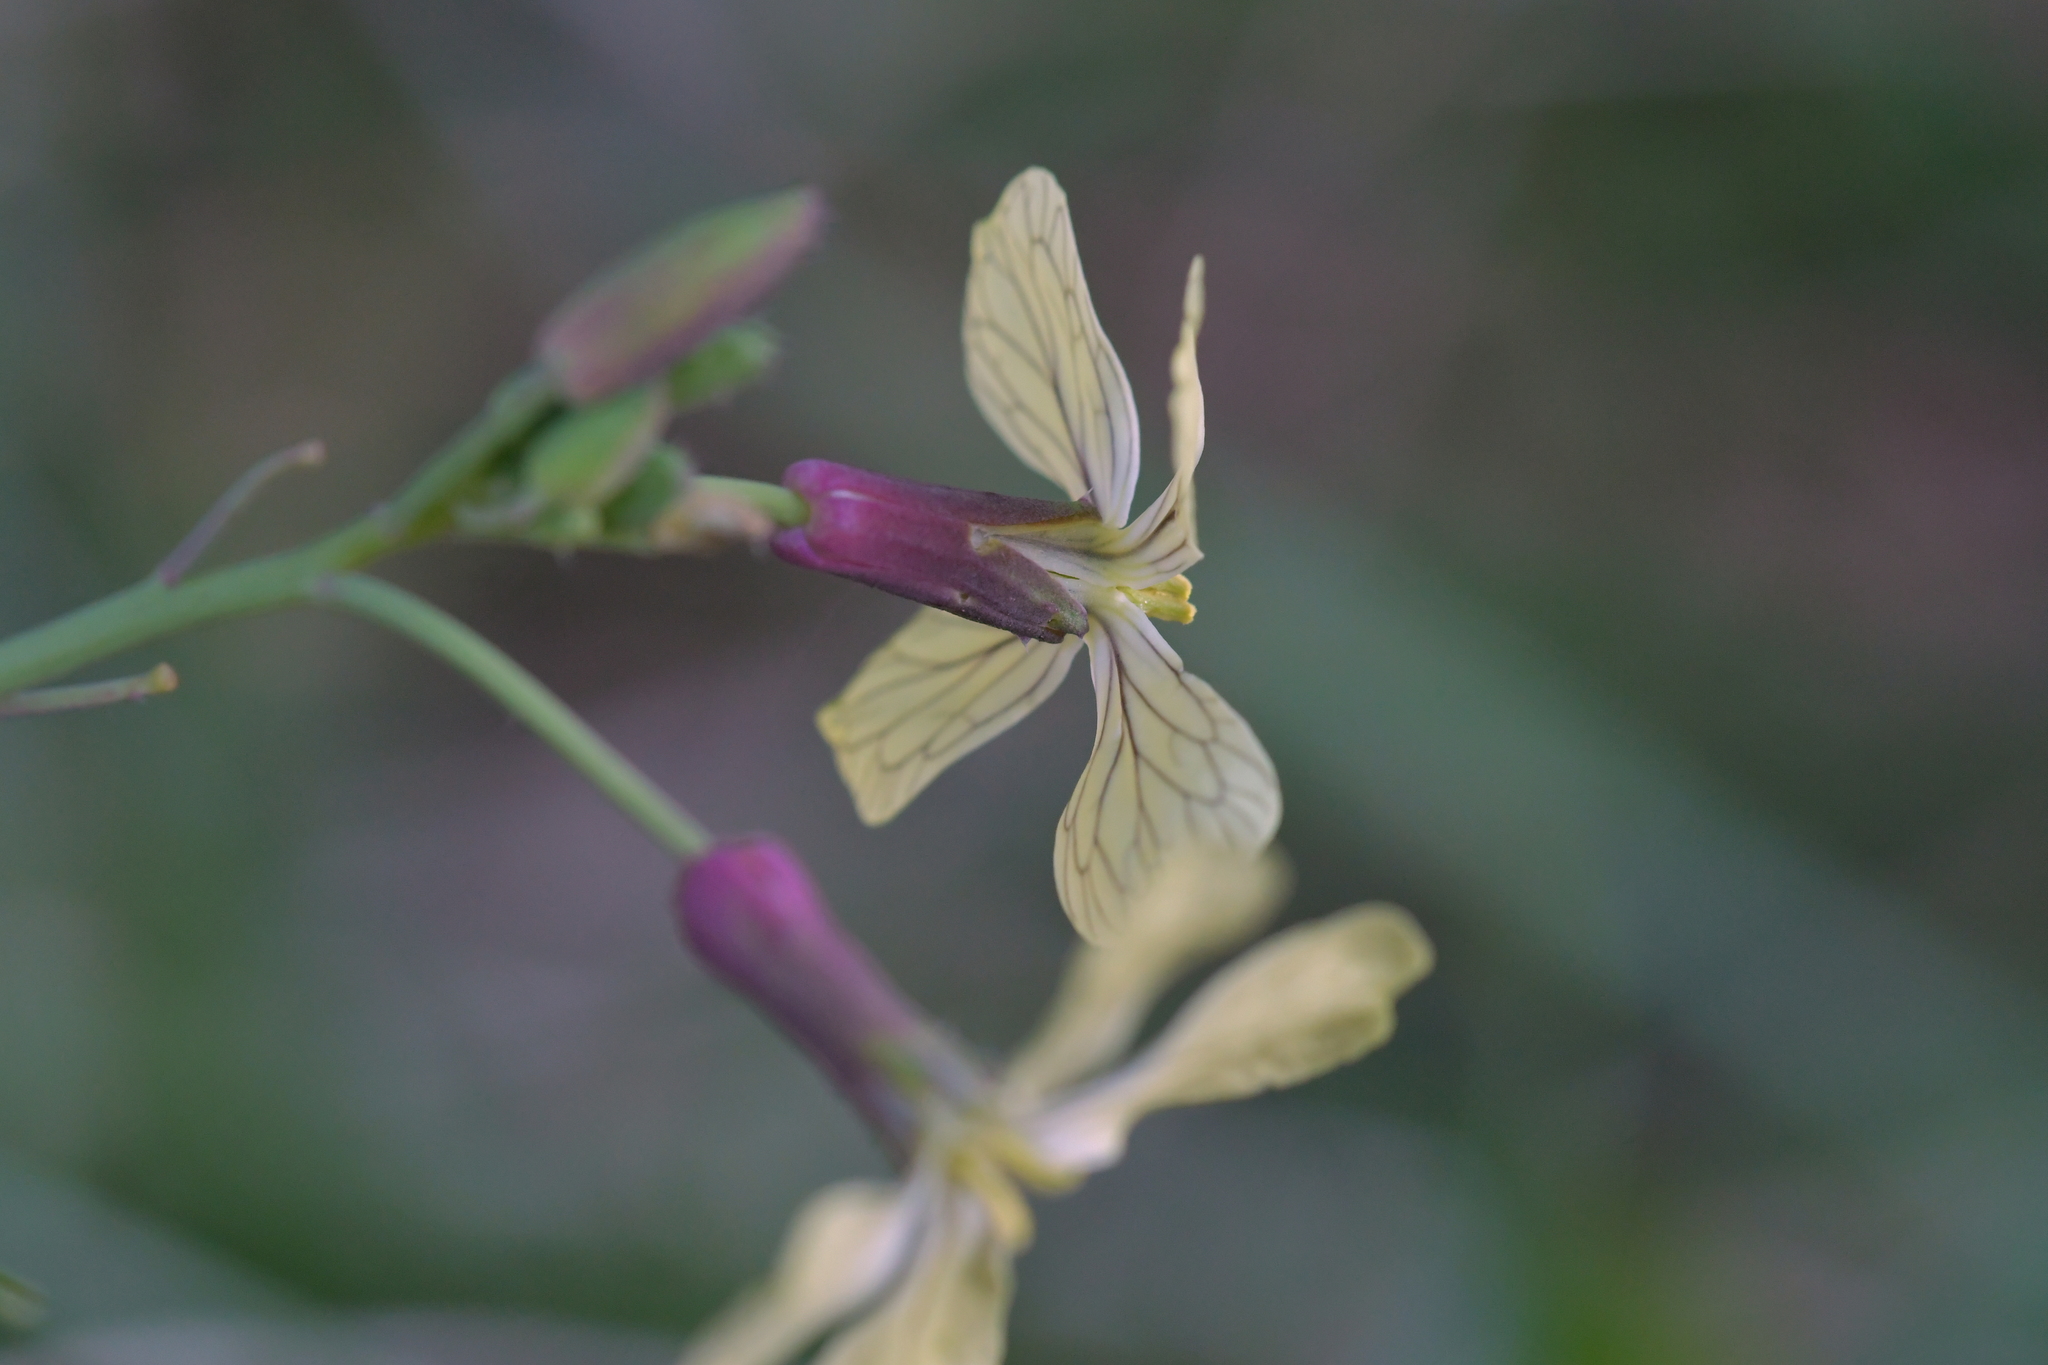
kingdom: Plantae
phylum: Tracheophyta
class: Magnoliopsida
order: Brassicales
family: Brassicaceae
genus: Raphanus
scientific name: Raphanus raphanistrum
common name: Wild radish
